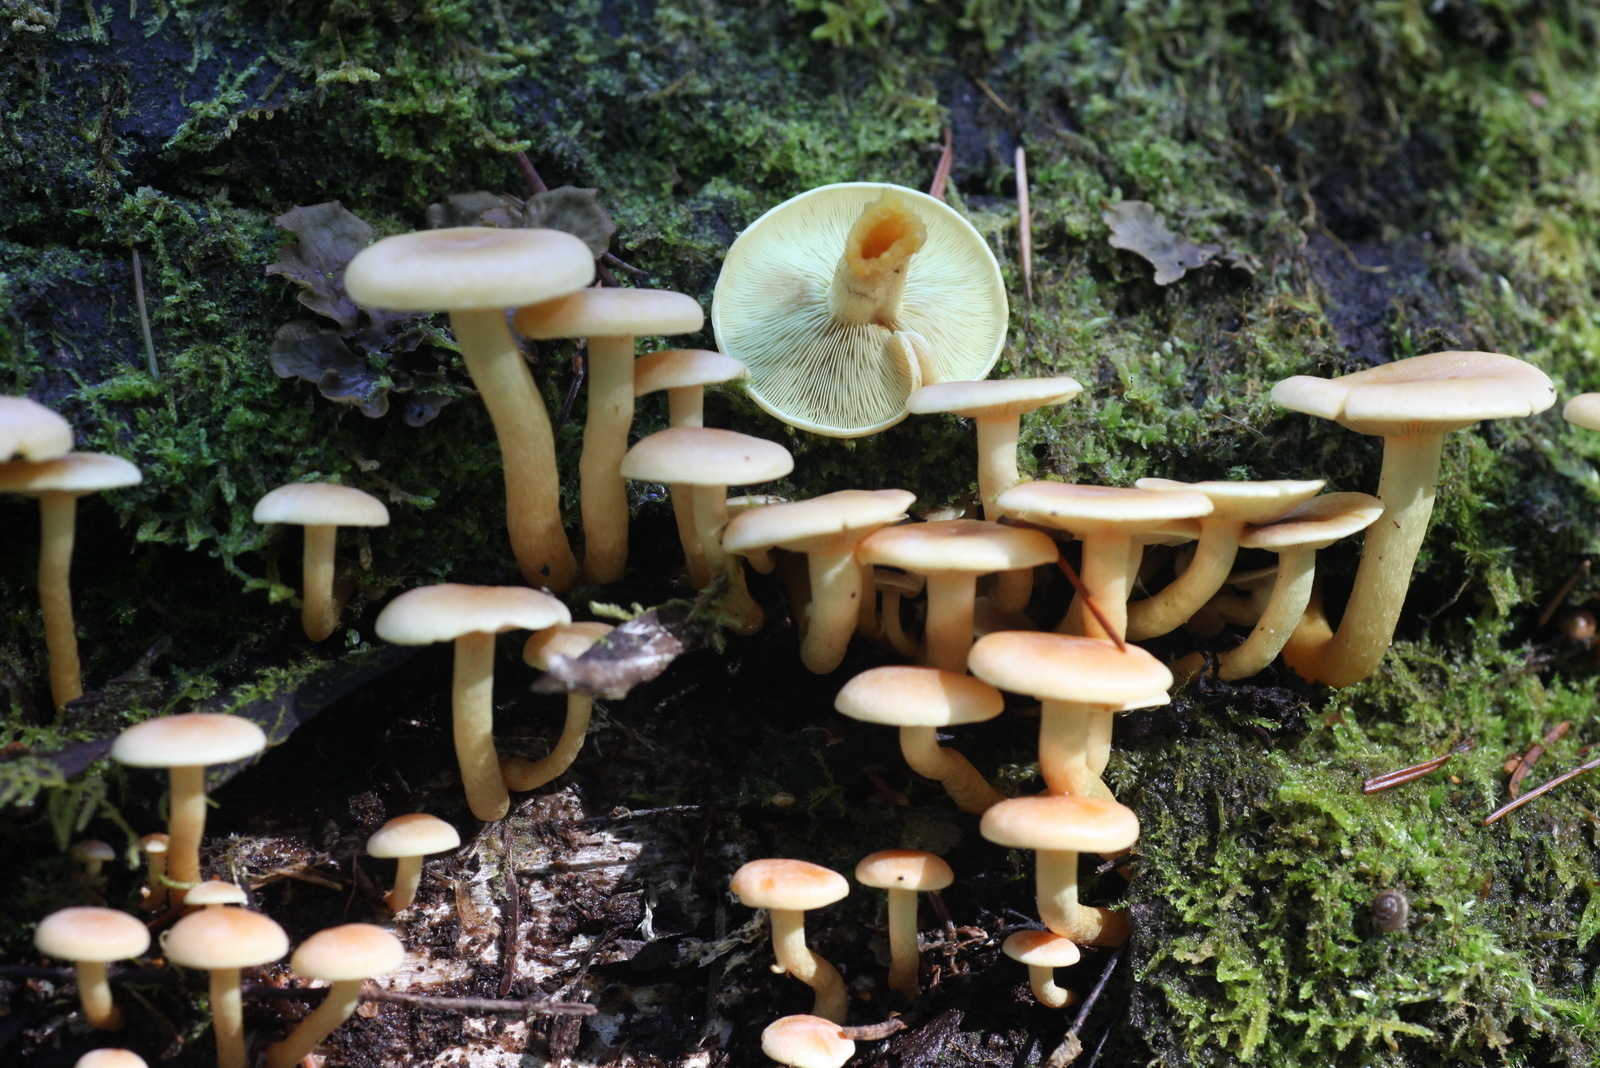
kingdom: Fungi
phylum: Basidiomycota
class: Agaricomycetes
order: Agaricales
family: Strophariaceae
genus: Hypholoma
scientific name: Hypholoma fasciculare
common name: Sulphur tuft
